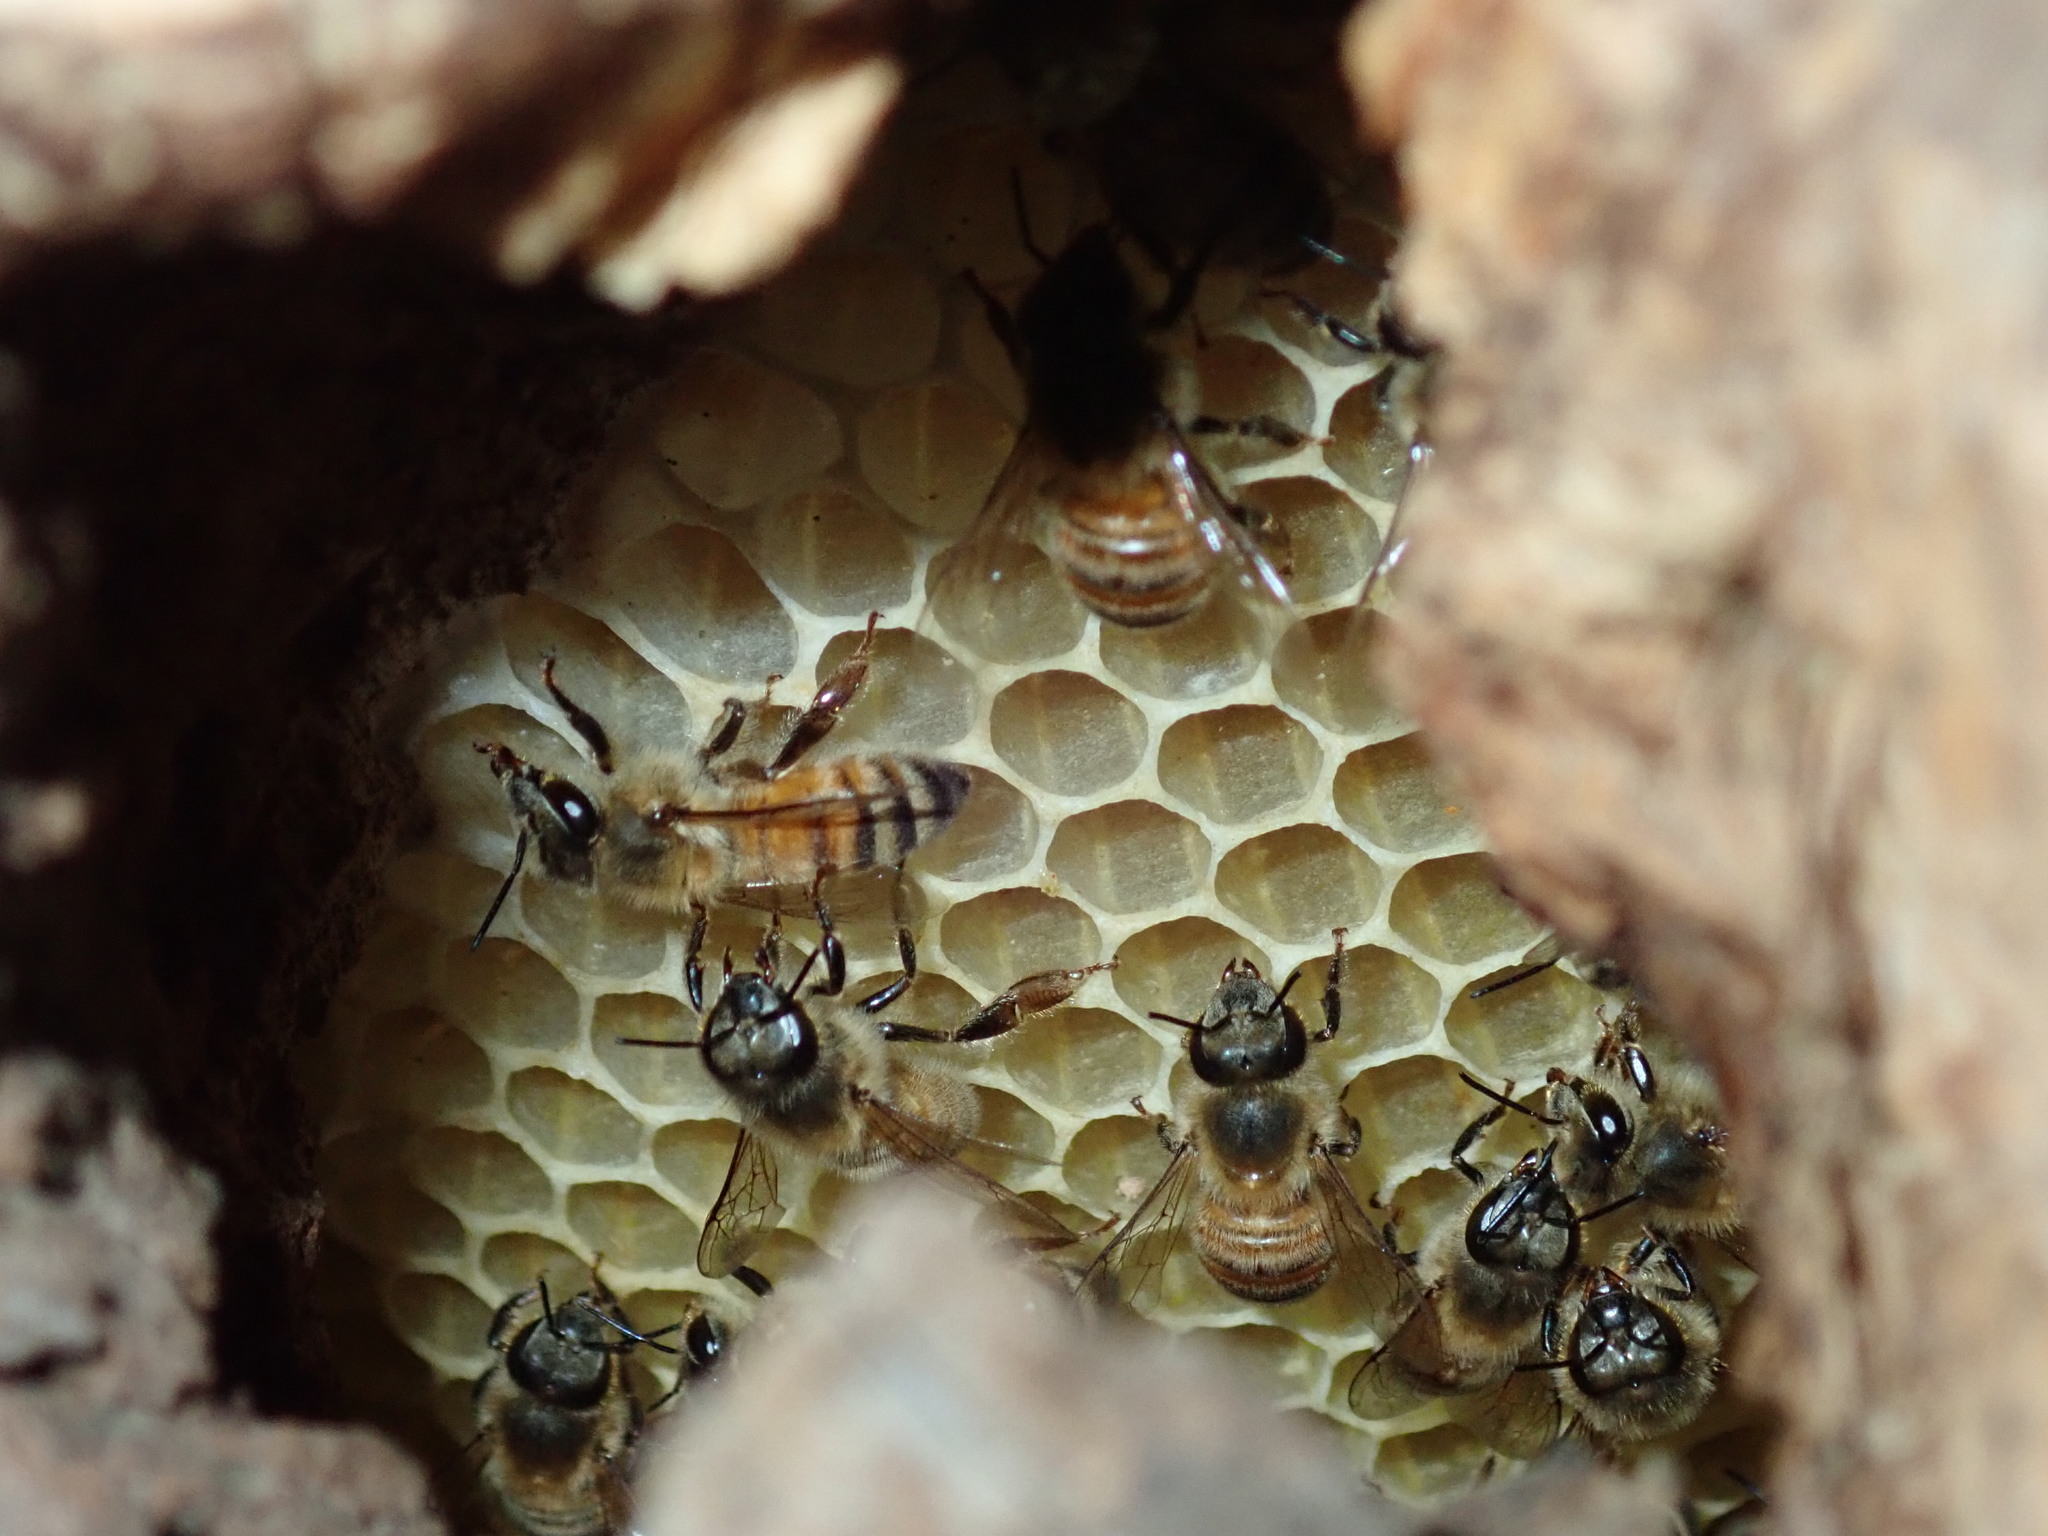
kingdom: Animalia
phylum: Arthropoda
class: Insecta
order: Hymenoptera
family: Apidae
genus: Apis
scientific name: Apis mellifera
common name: Honey bee
